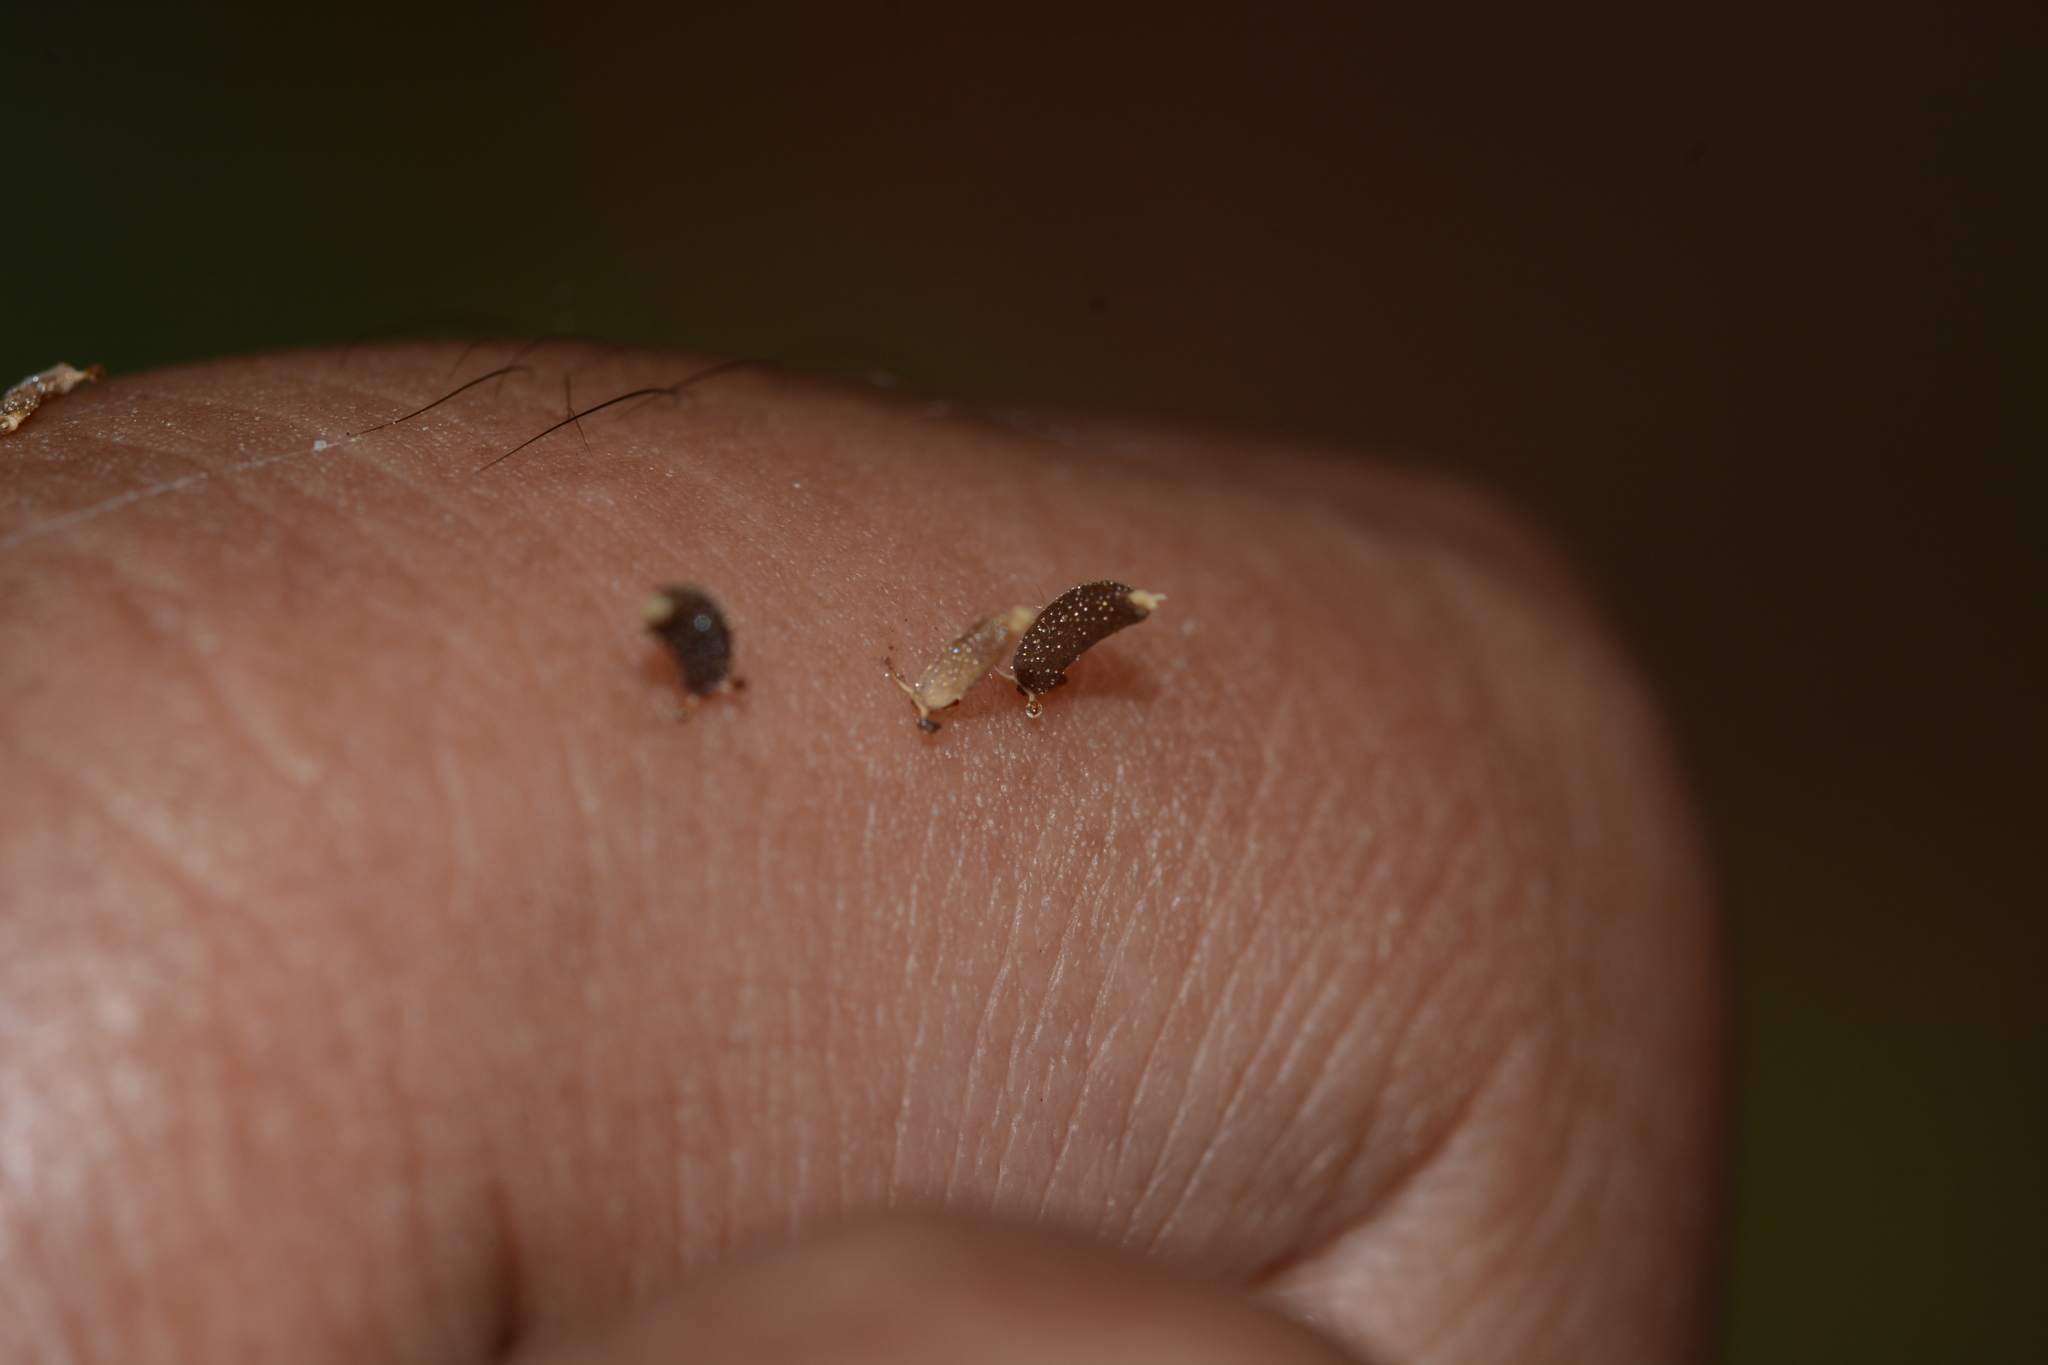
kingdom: Plantae
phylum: Tracheophyta
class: Magnoliopsida
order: Asterales
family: Asteraceae
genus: Adenostemma
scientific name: Adenostemma lavenia
